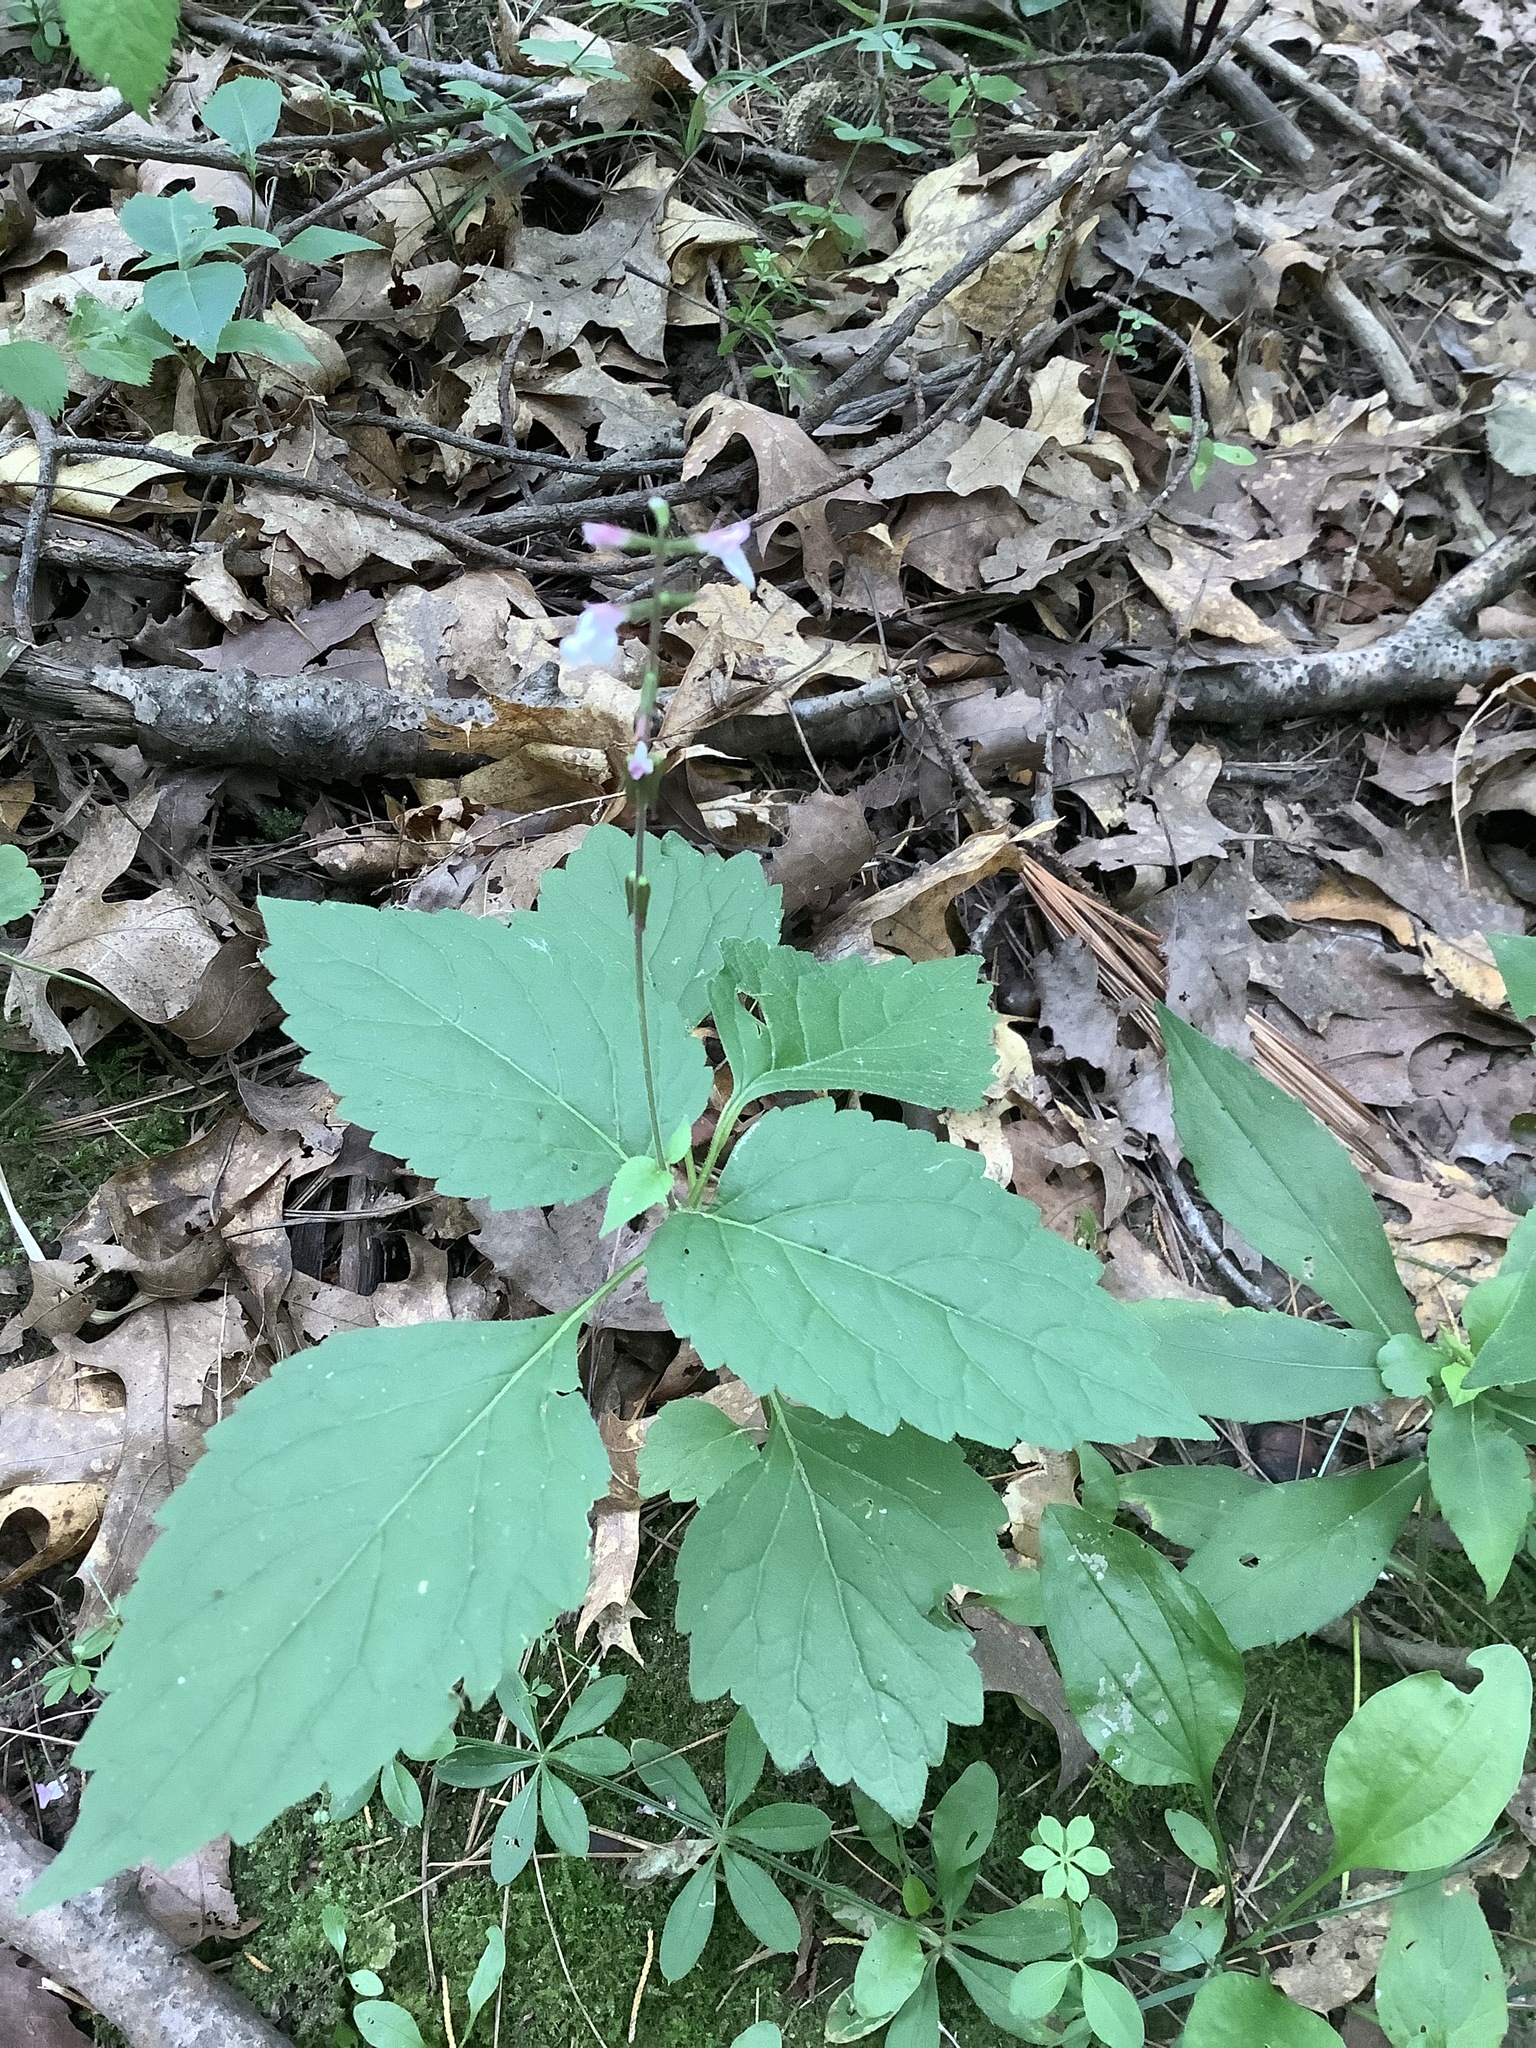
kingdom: Plantae
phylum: Tracheophyta
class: Magnoliopsida
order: Lamiales
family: Phrymaceae
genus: Phryma
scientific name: Phryma leptostachya
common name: American lopseed
